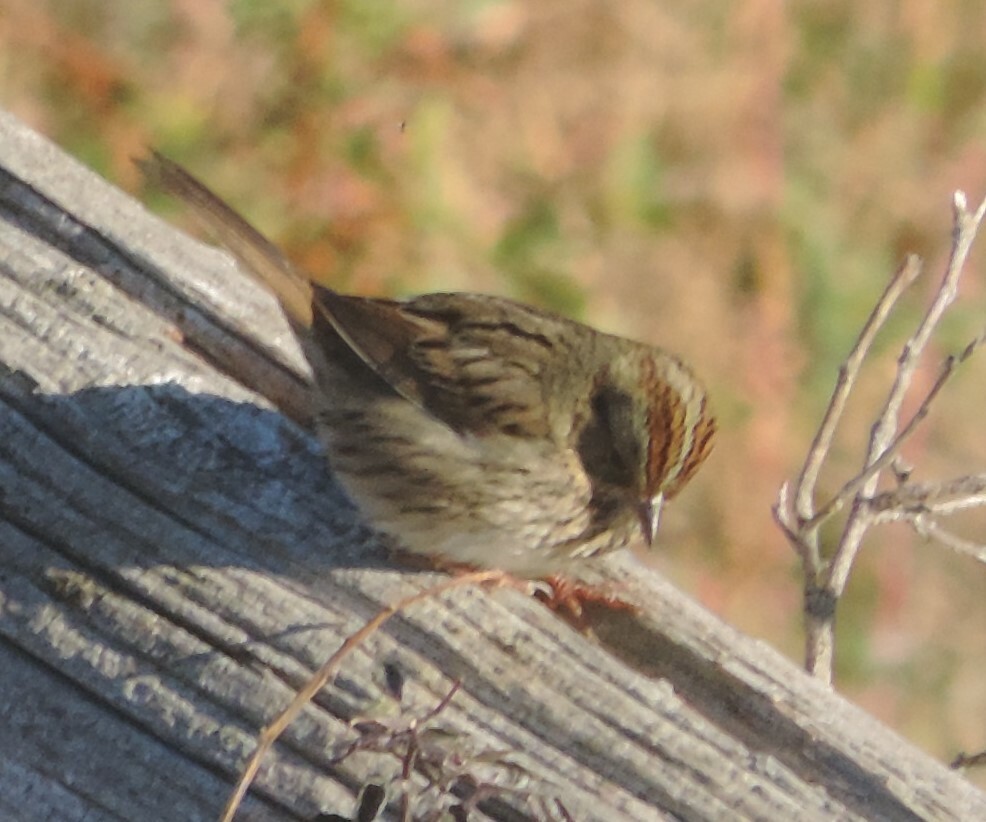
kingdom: Animalia
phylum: Chordata
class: Aves
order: Passeriformes
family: Passerellidae
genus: Melospiza
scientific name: Melospiza lincolnii
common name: Lincoln's sparrow
